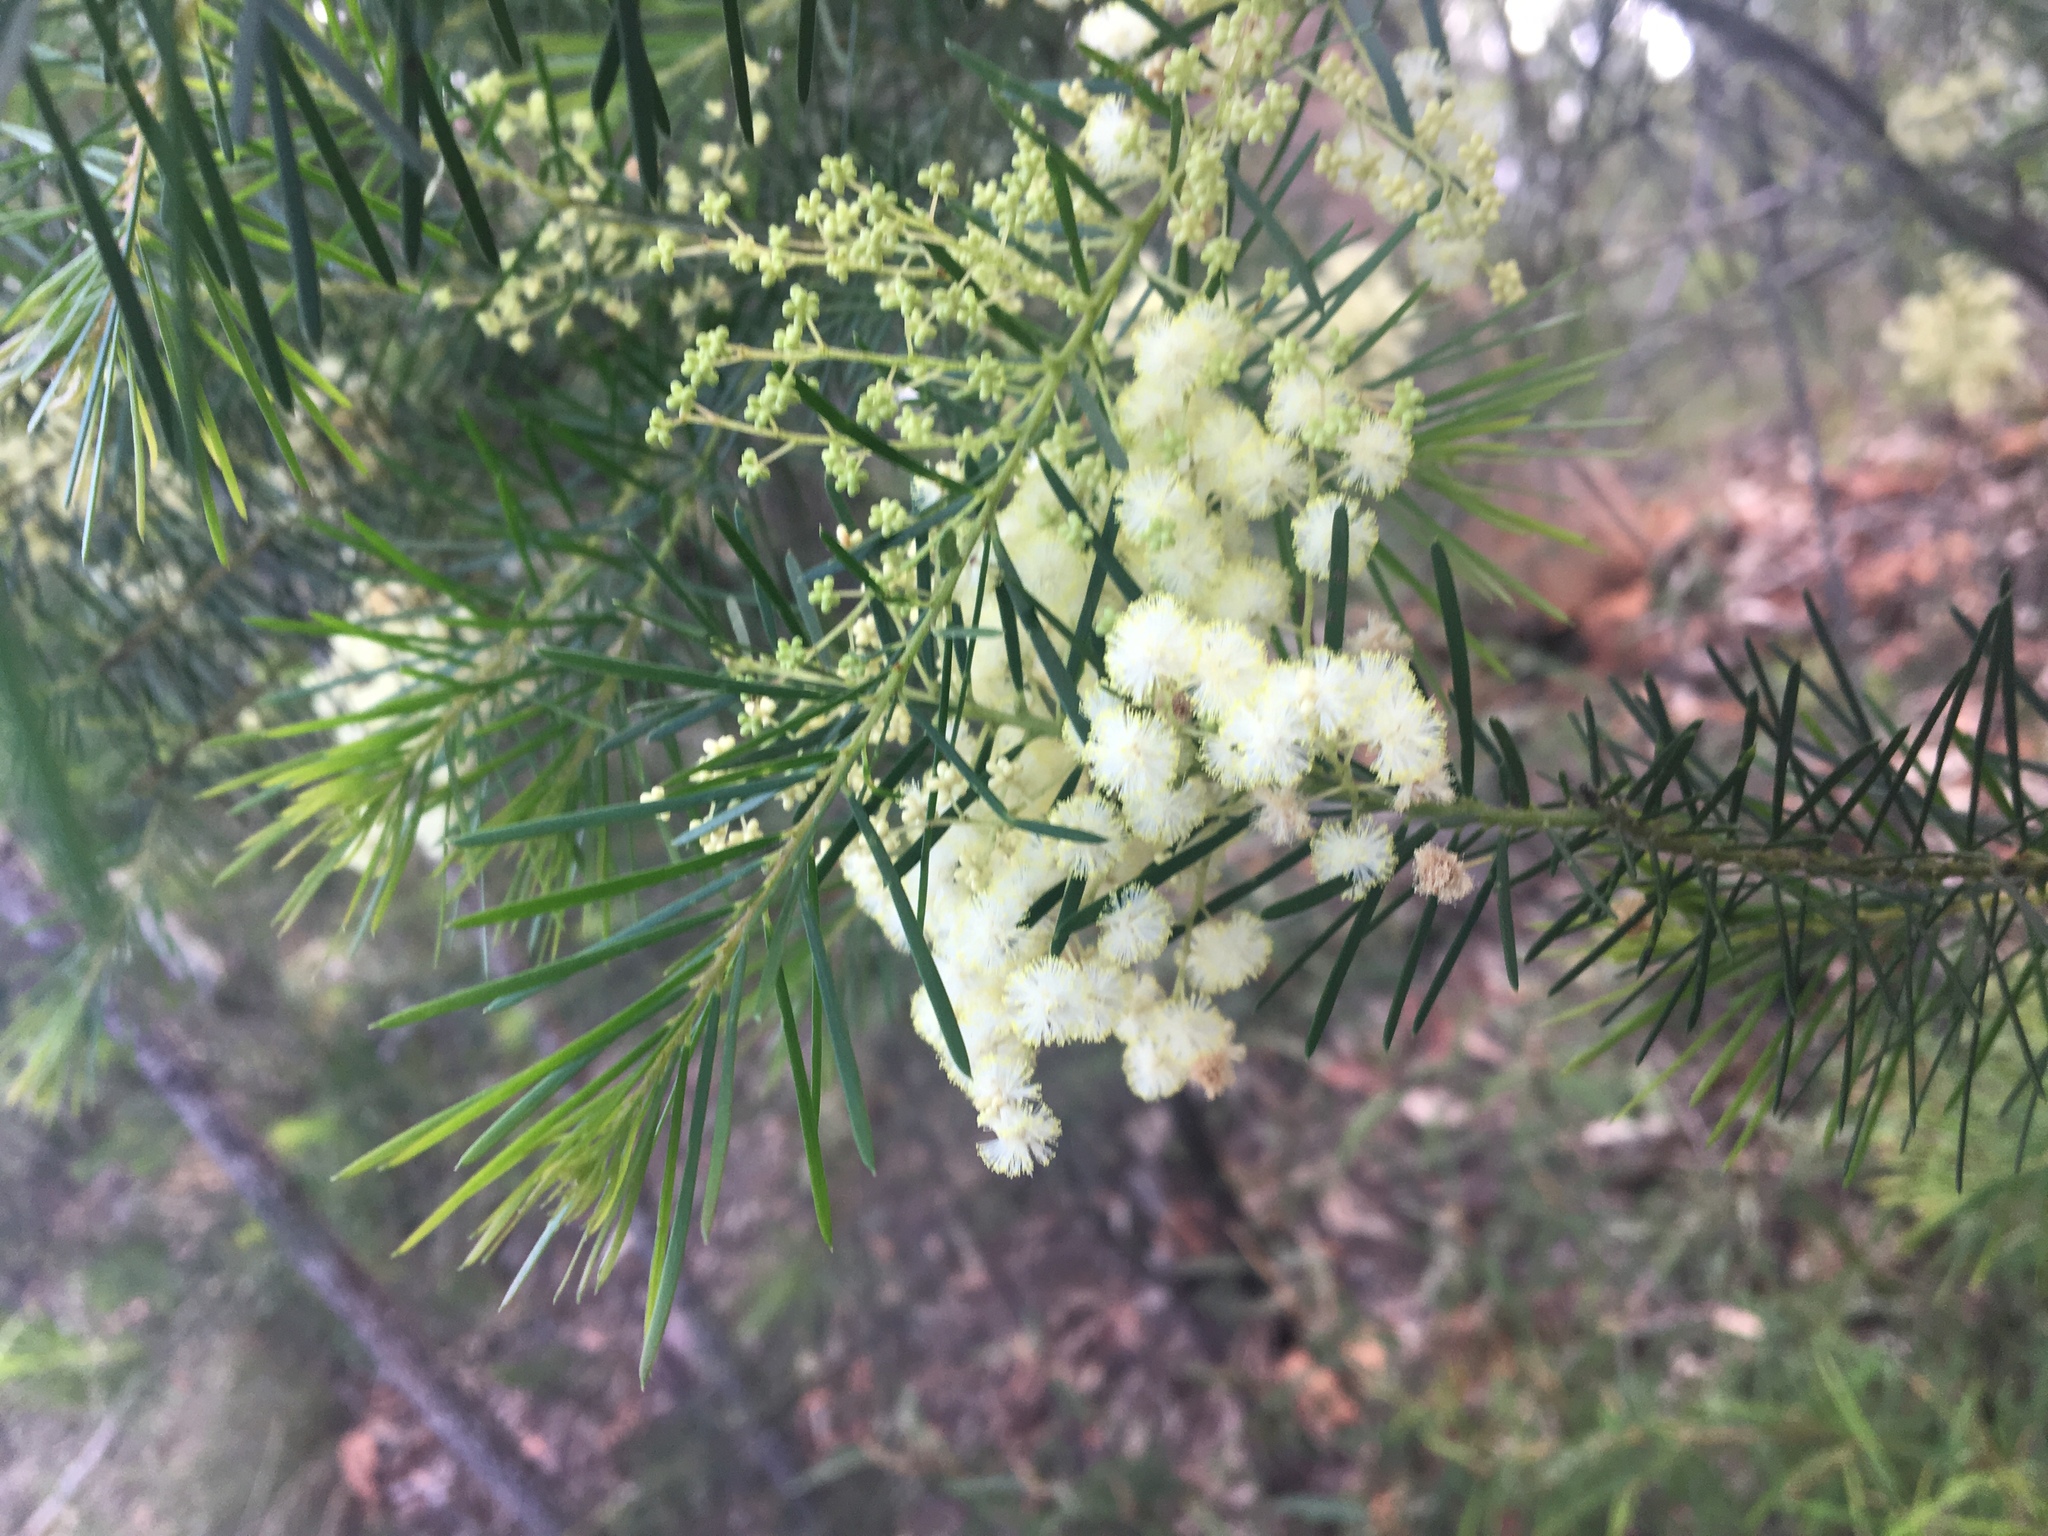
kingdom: Plantae
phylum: Tracheophyta
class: Magnoliopsida
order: Fabales
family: Fabaceae
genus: Acacia
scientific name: Acacia linifolia
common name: White wattle
